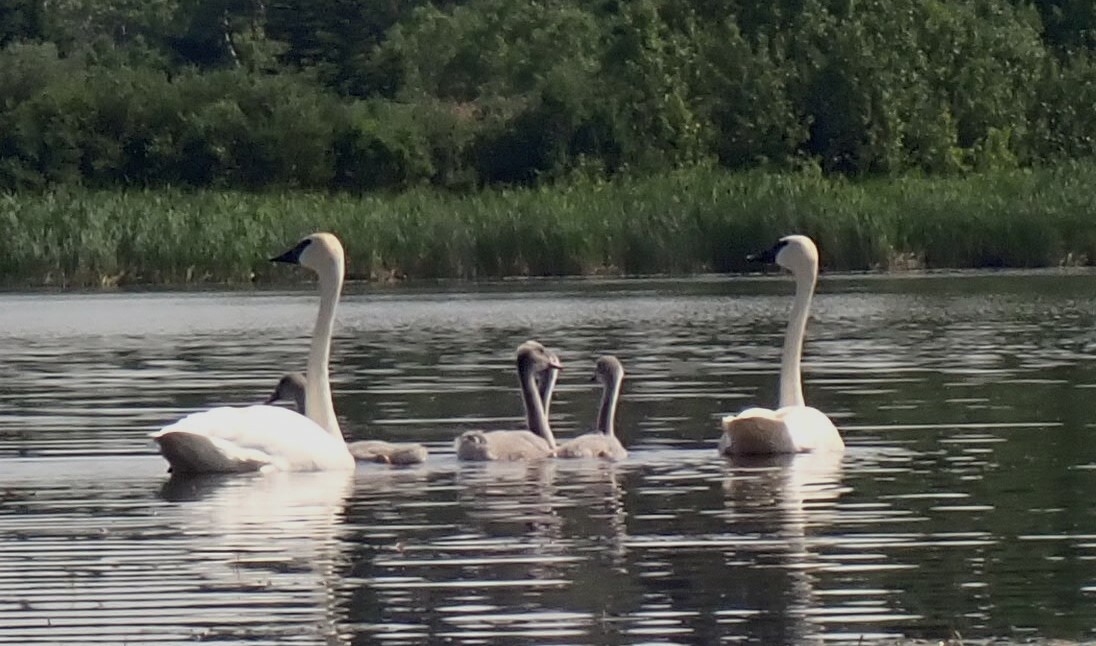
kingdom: Animalia
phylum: Chordata
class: Aves
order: Anseriformes
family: Anatidae
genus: Cygnus
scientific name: Cygnus buccinator
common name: Trumpeter swan
